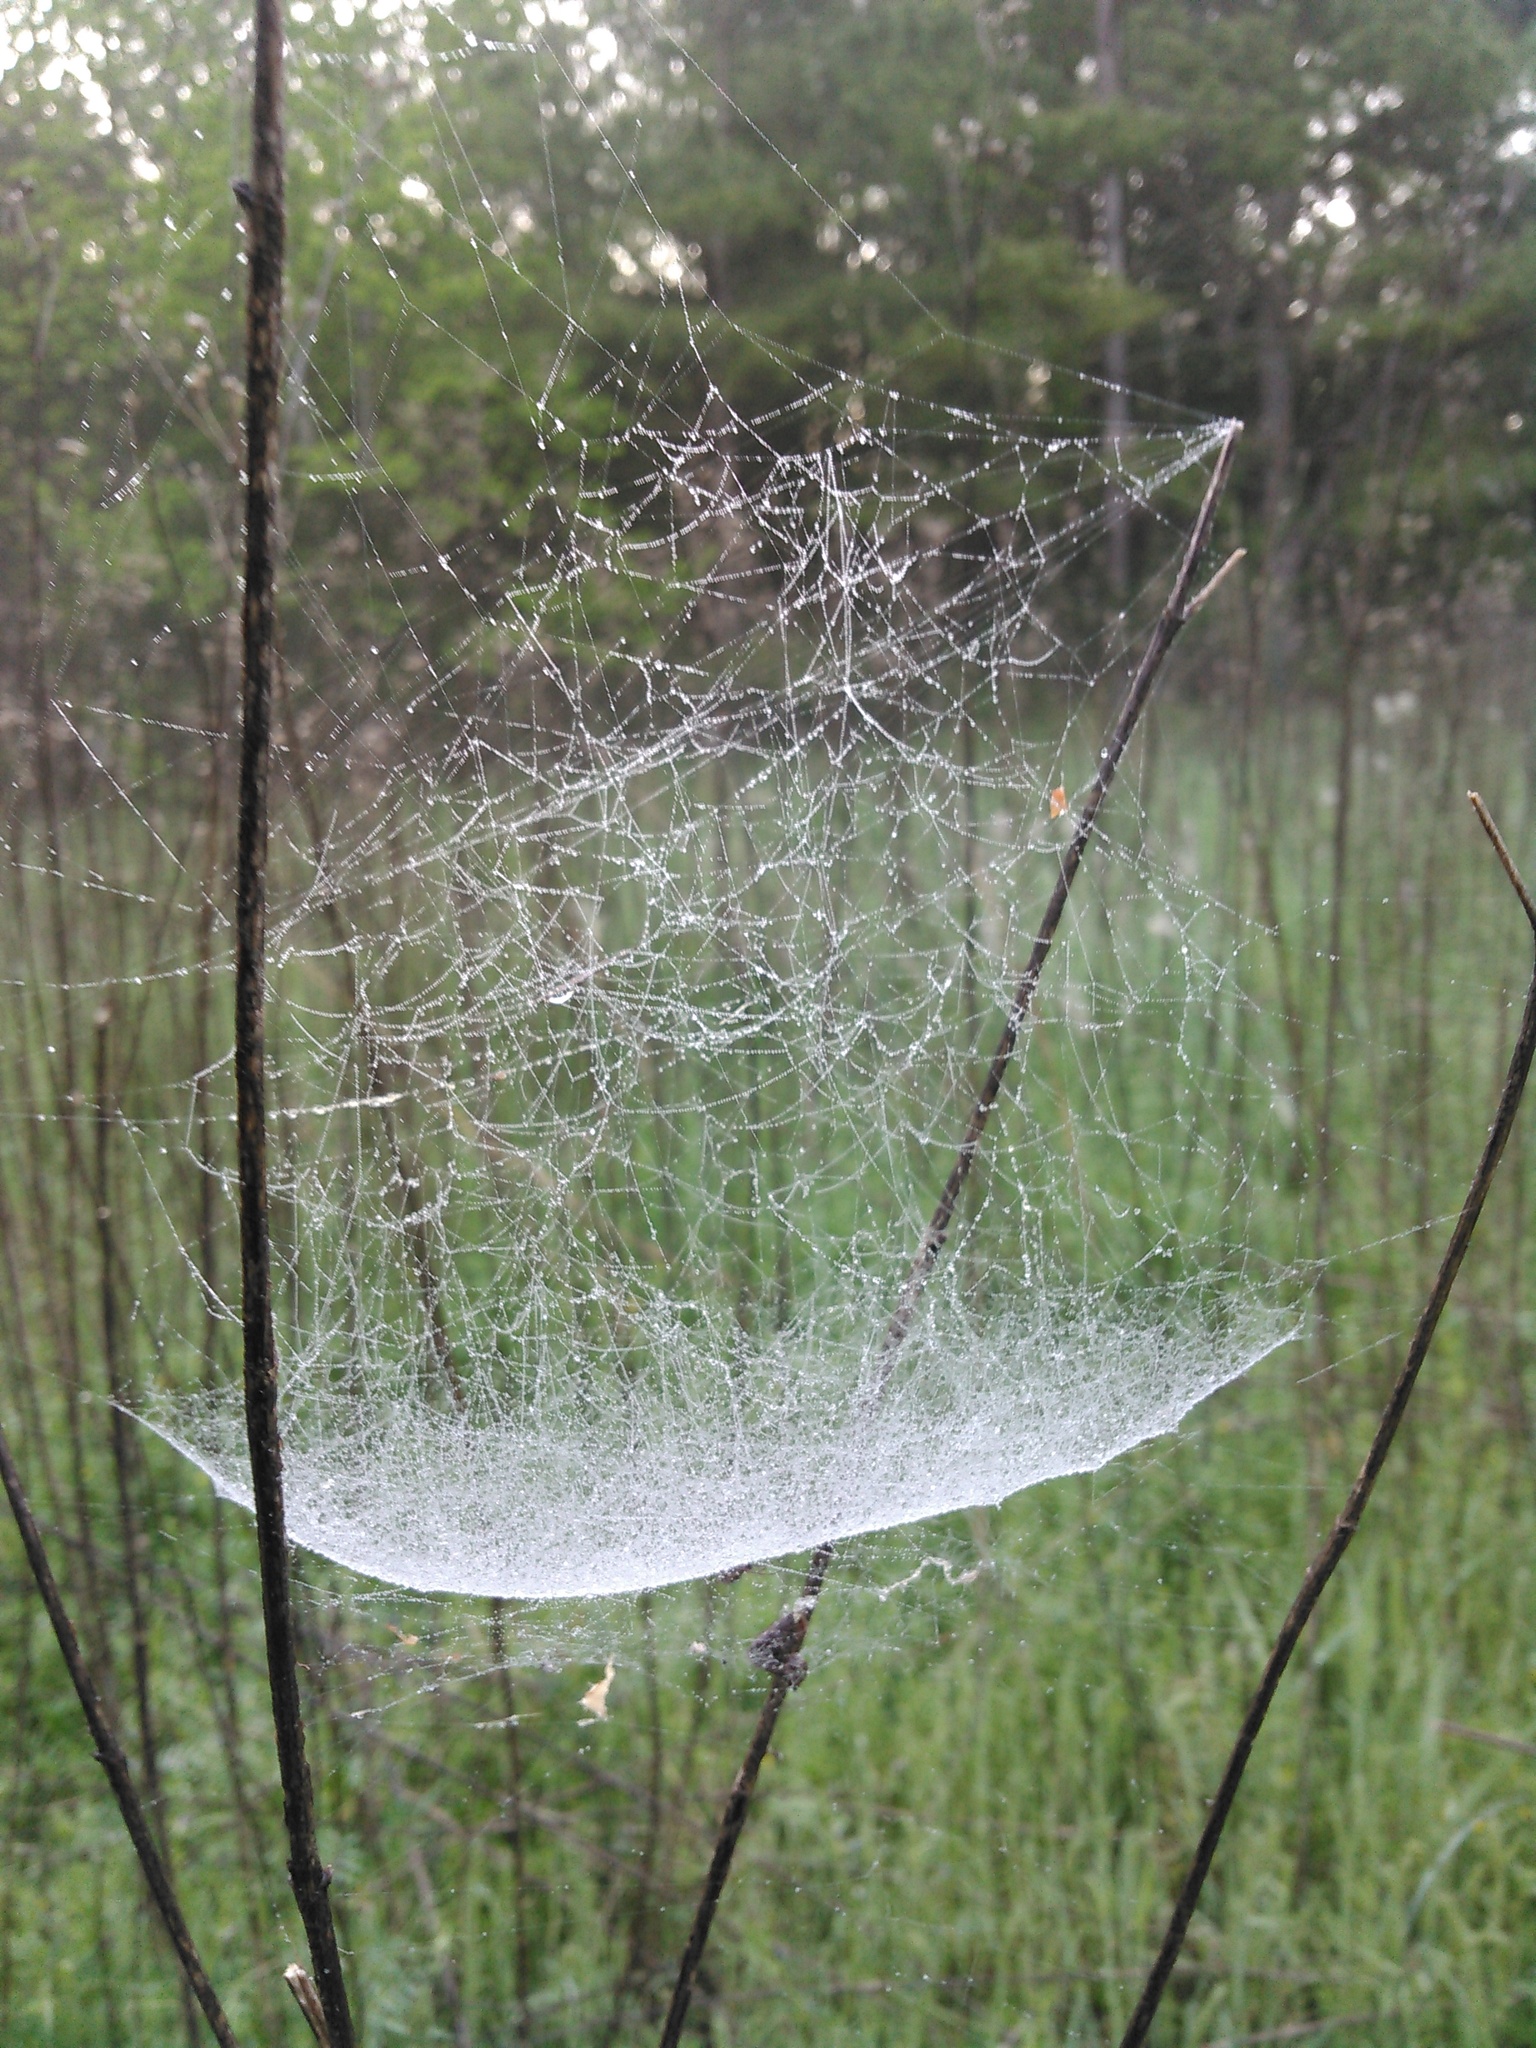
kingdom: Animalia
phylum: Arthropoda
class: Arachnida
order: Araneae
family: Linyphiidae
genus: Frontinella
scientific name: Frontinella pyramitela
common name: Bowl-and-doily spider
